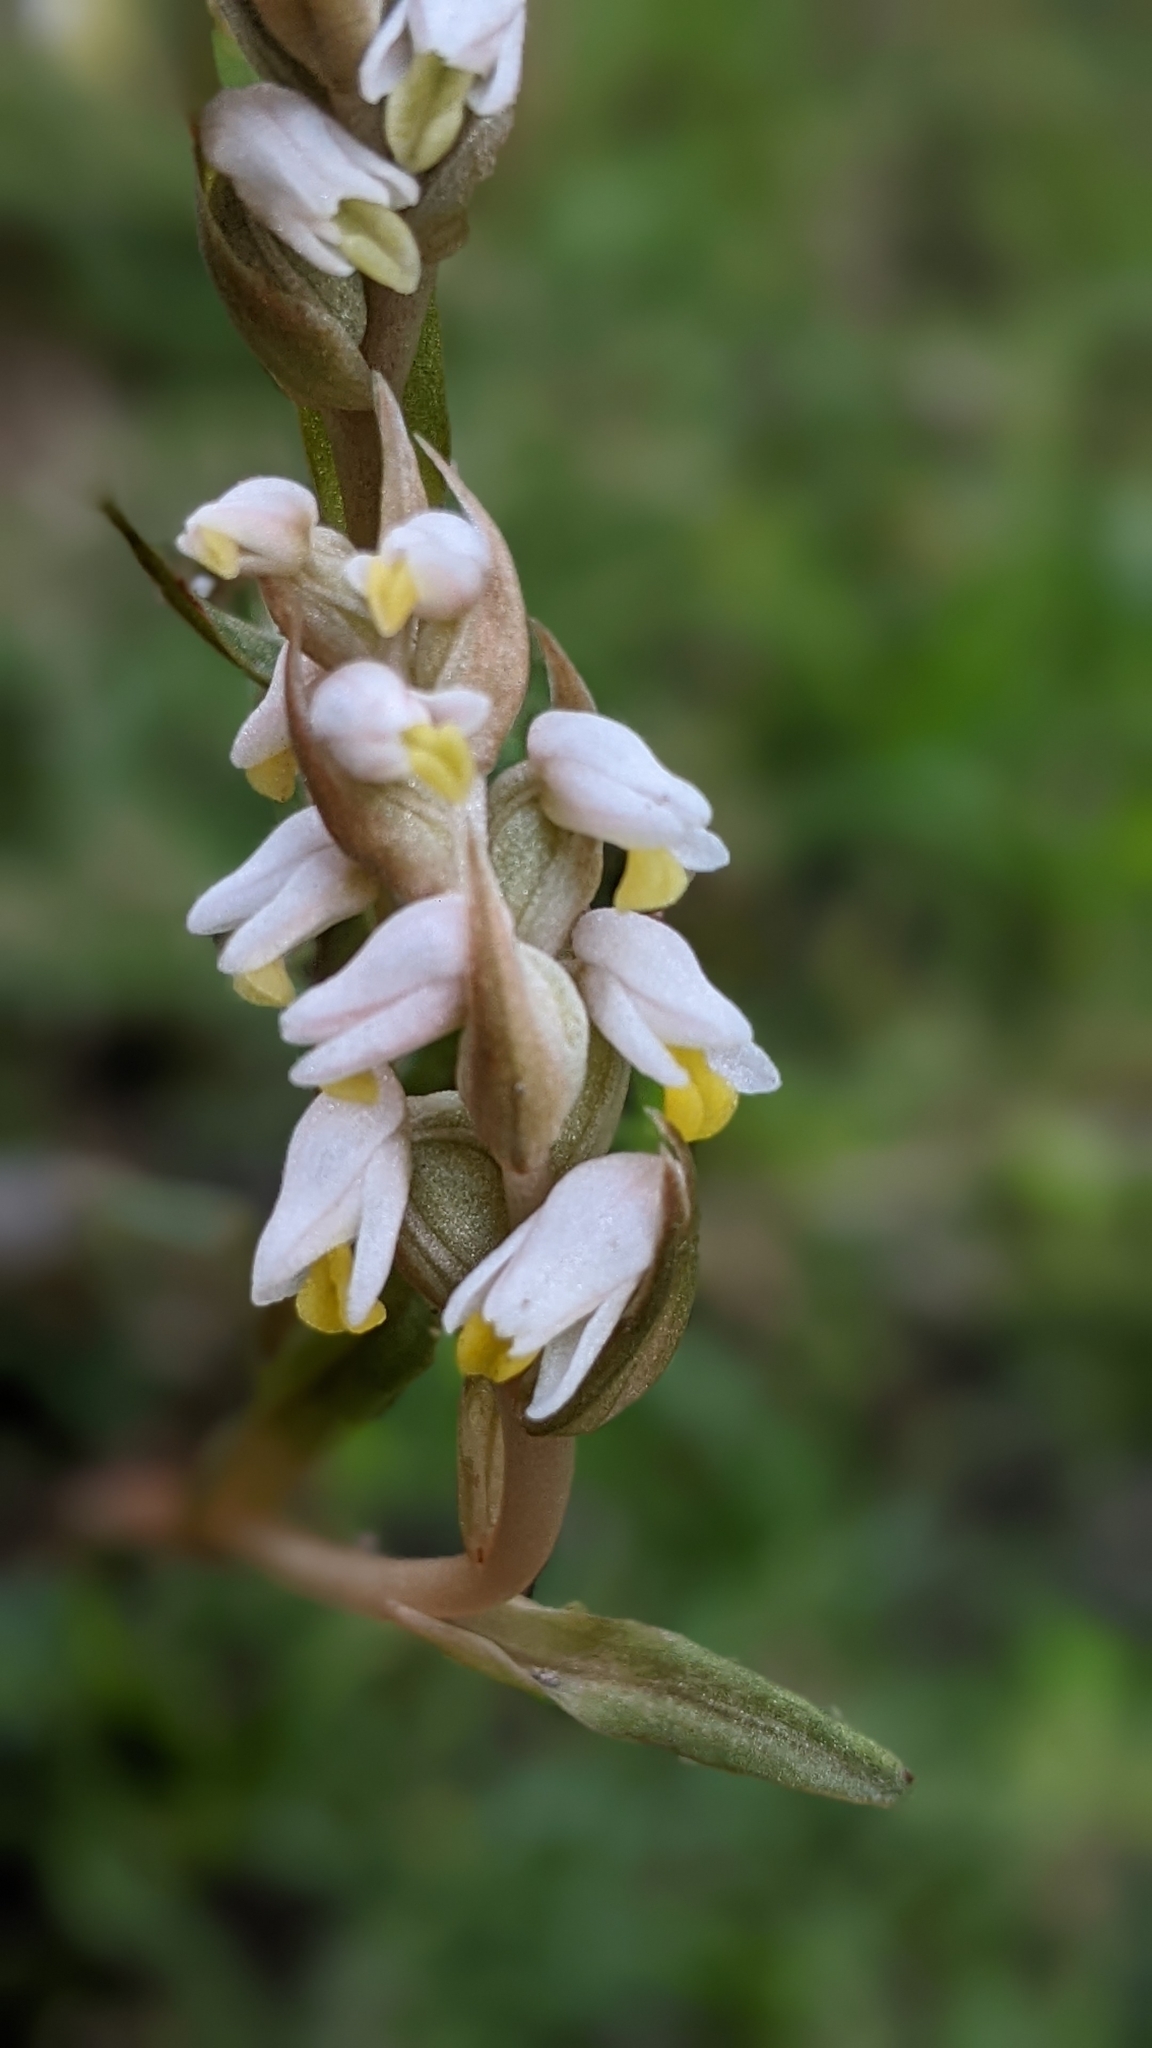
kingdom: Plantae
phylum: Tracheophyta
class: Liliopsida
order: Asparagales
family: Orchidaceae
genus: Zeuxine
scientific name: Zeuxine strateumatica
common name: Soldier's orchid
